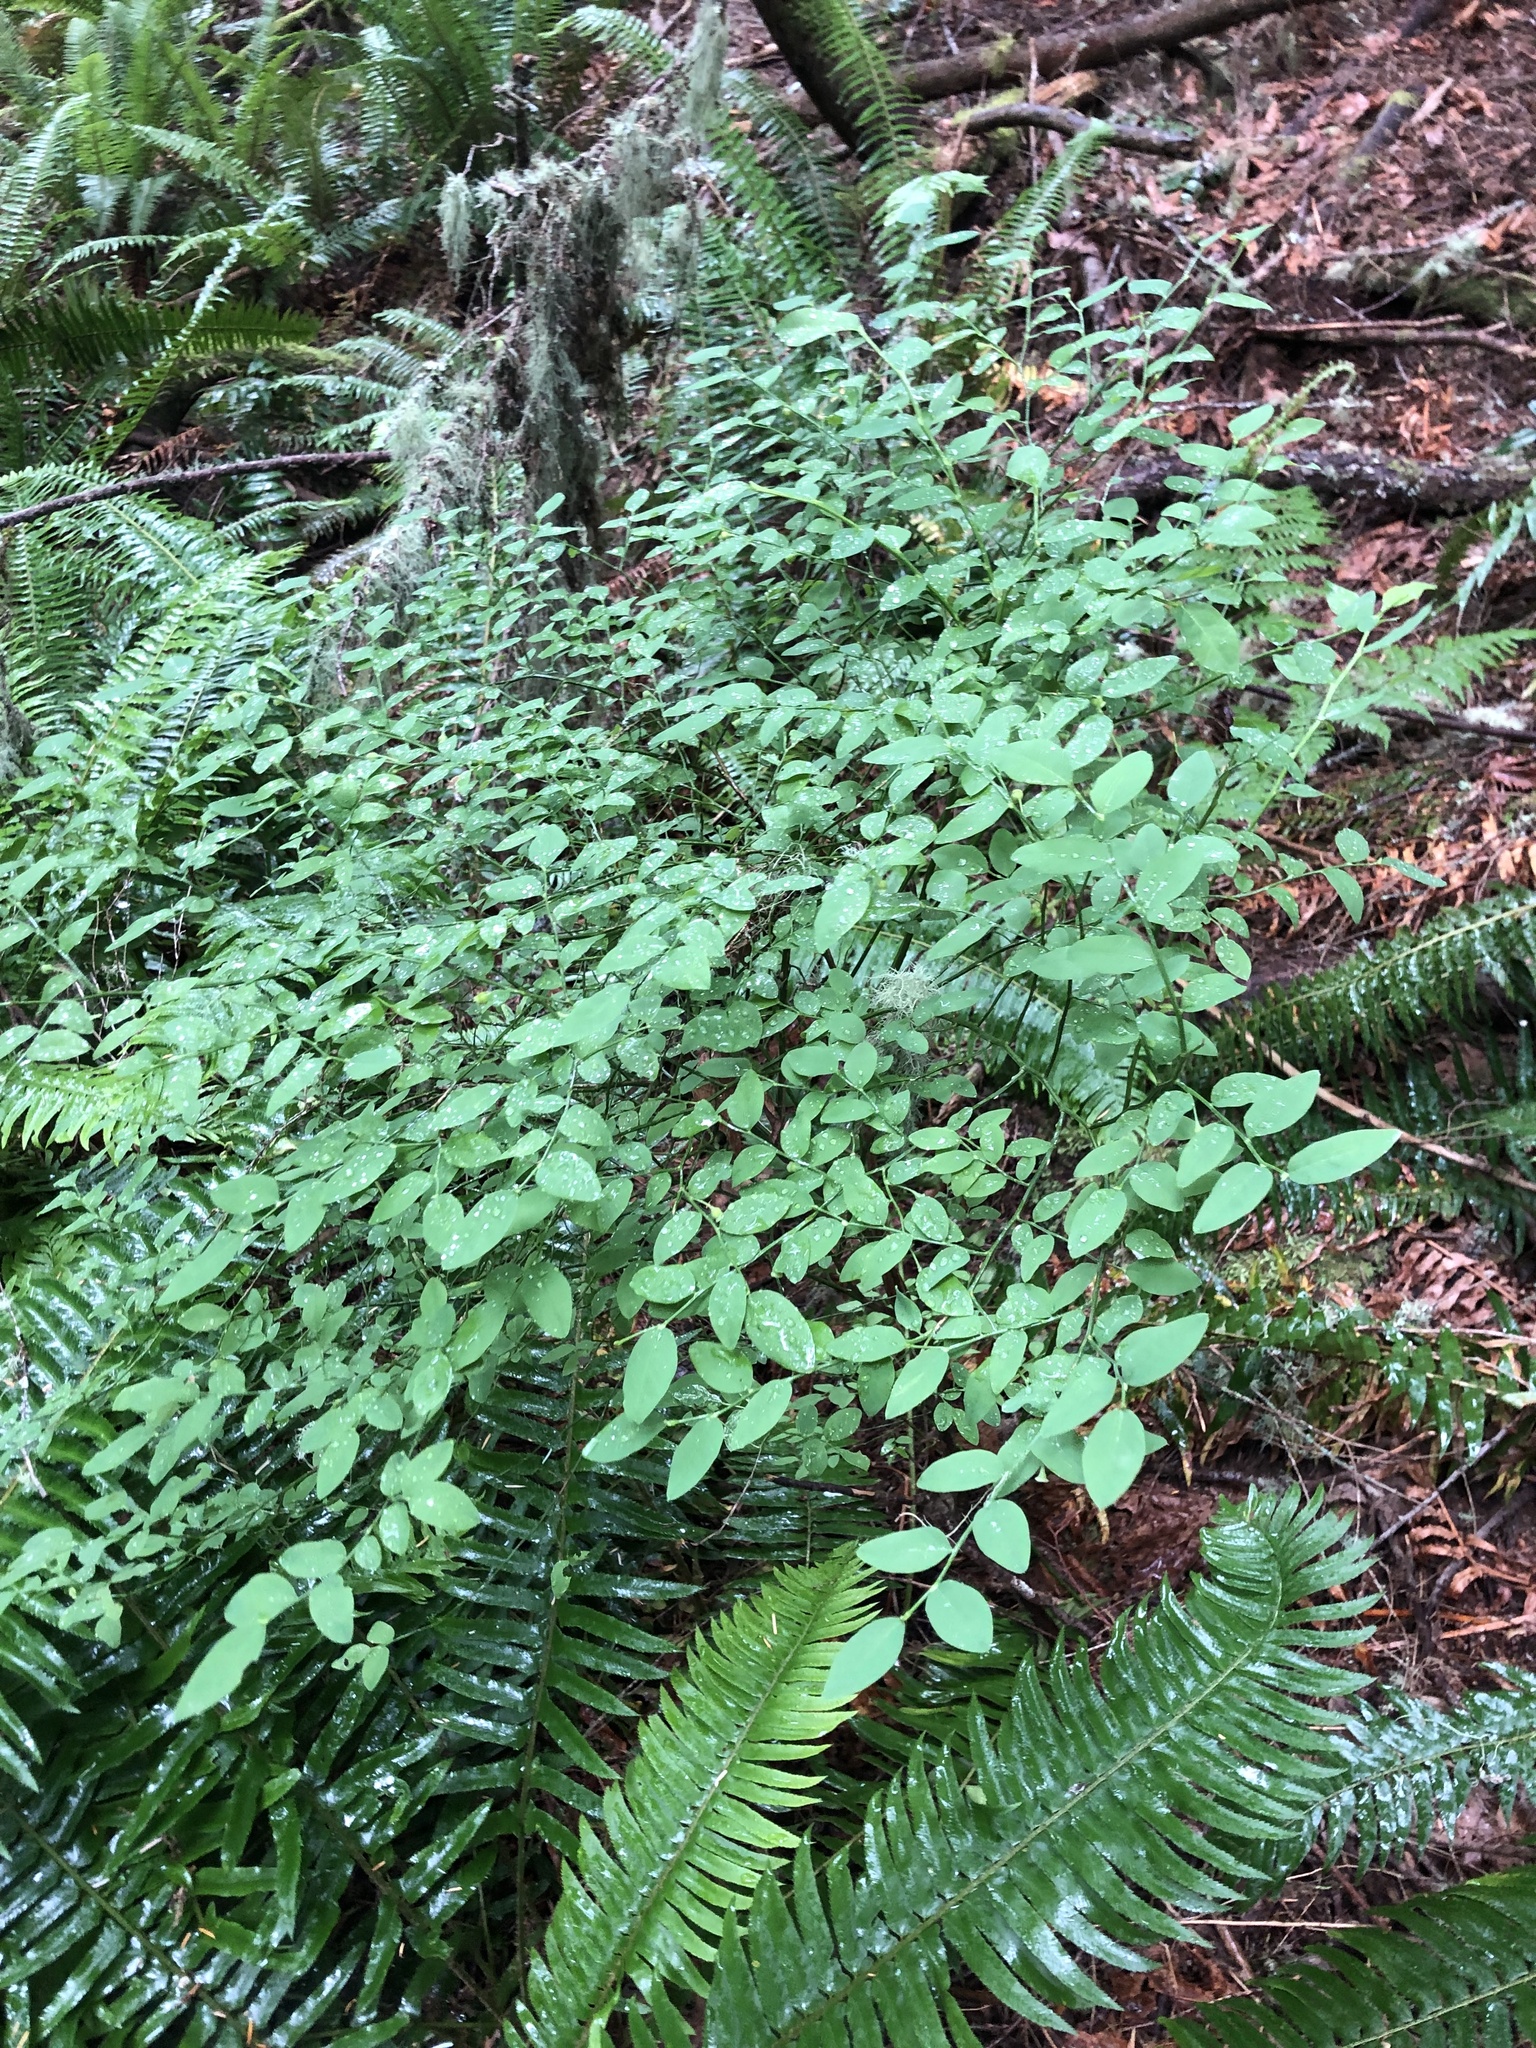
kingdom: Plantae
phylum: Tracheophyta
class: Magnoliopsida
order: Ericales
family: Ericaceae
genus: Vaccinium
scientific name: Vaccinium parvifolium
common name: Red-huckleberry
